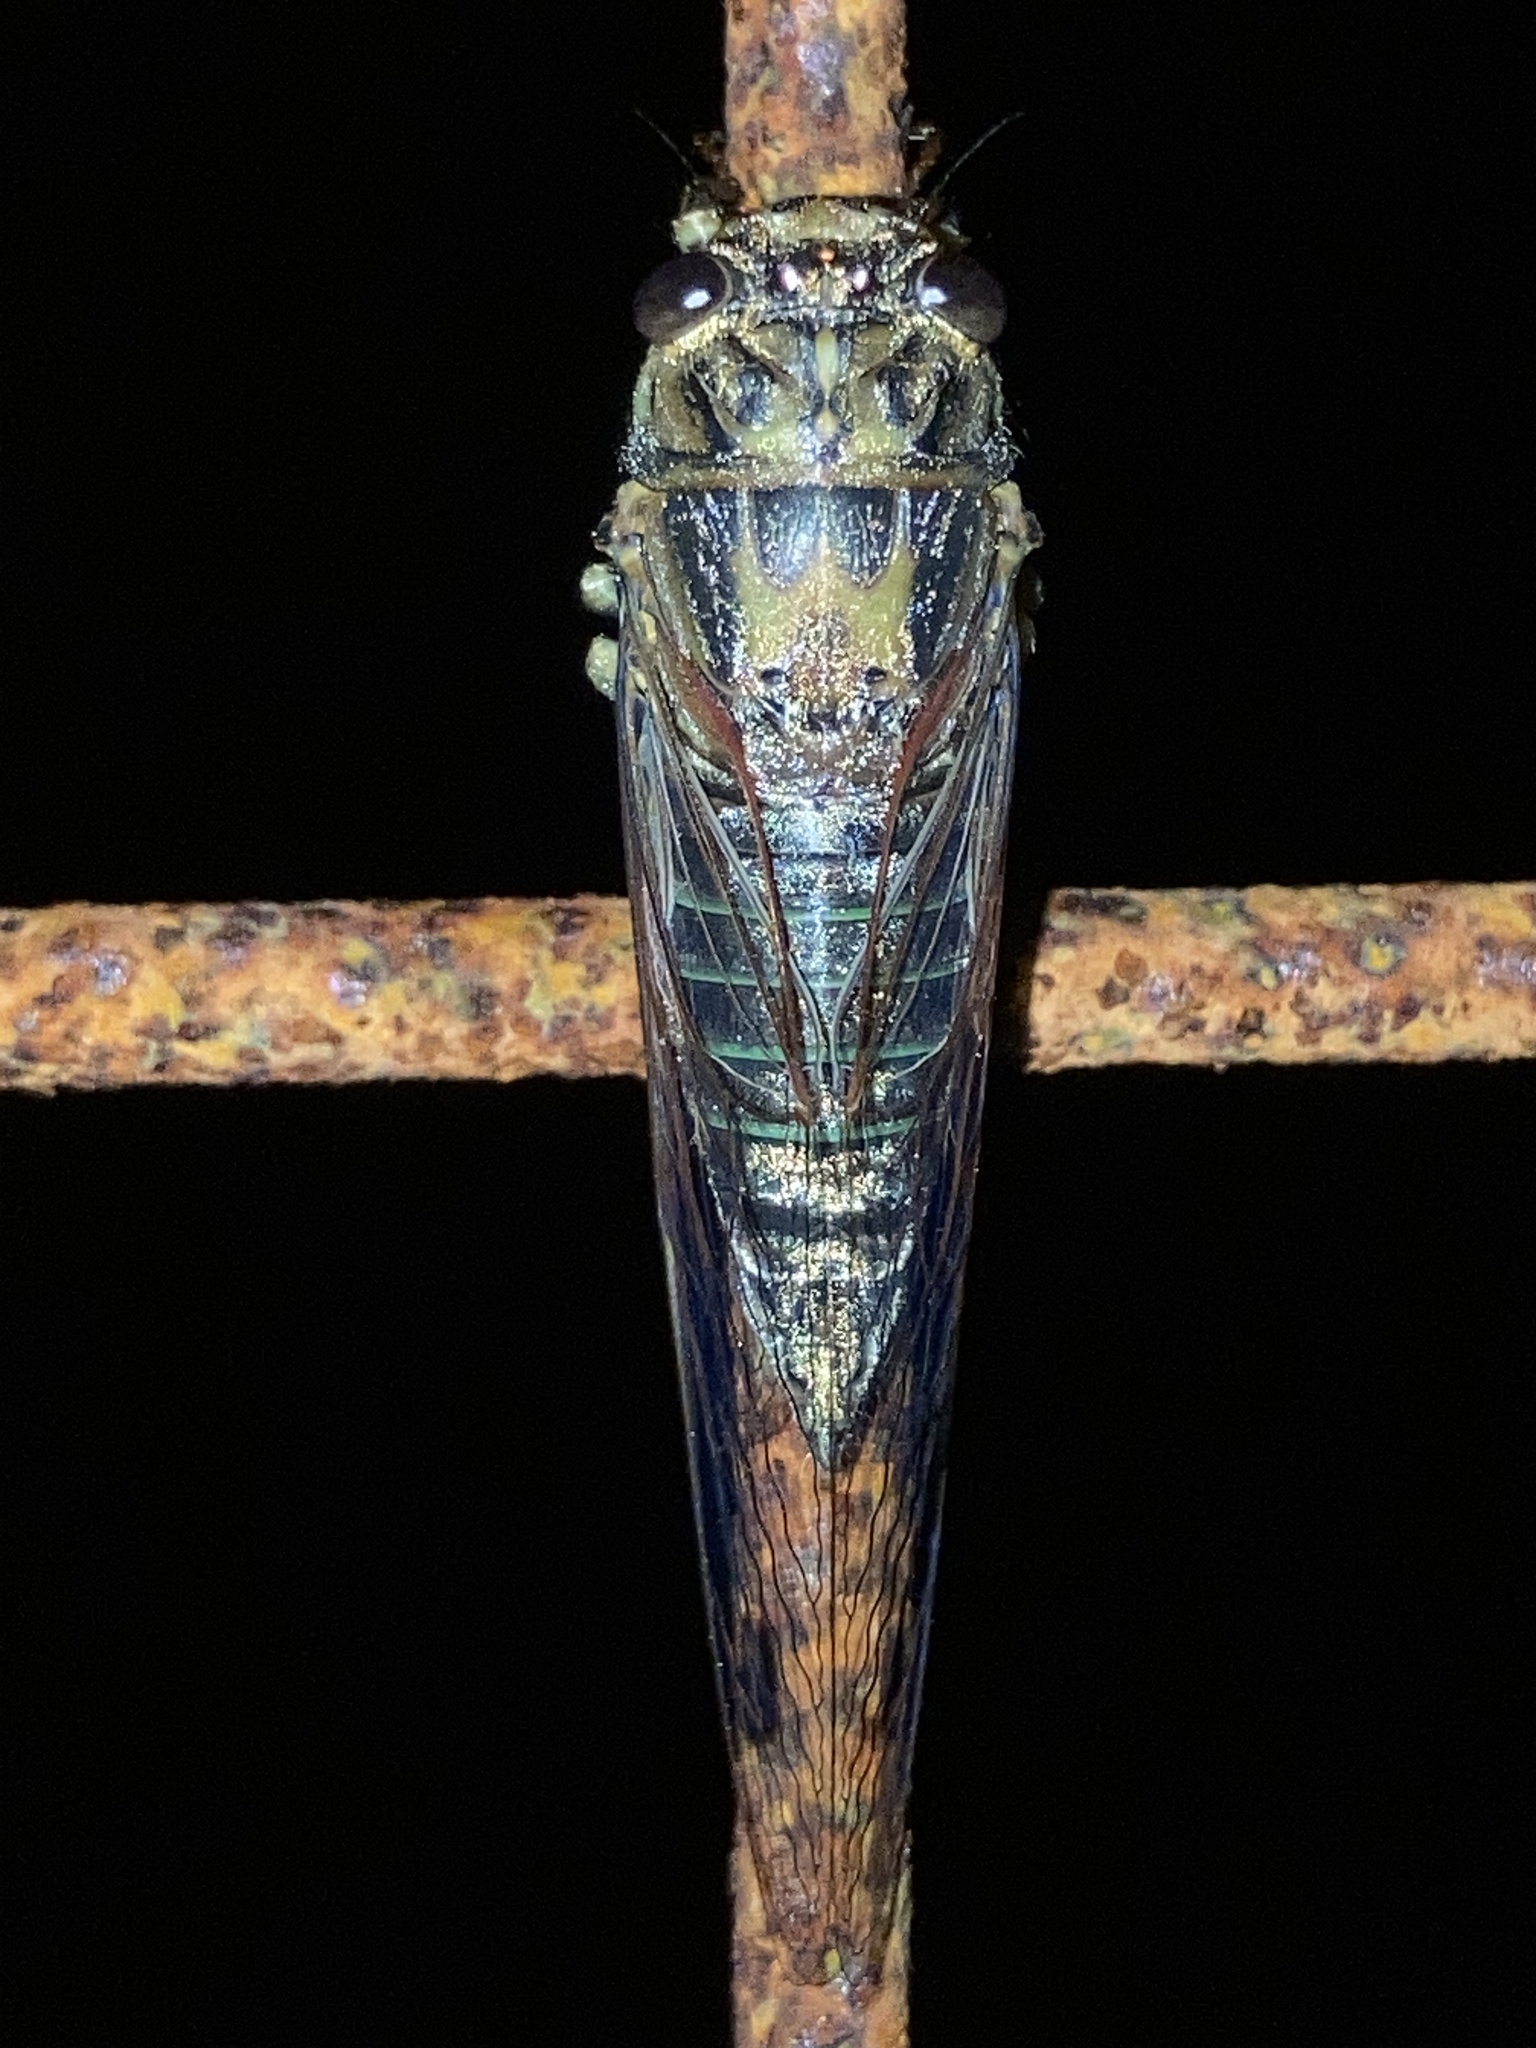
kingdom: Animalia
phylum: Arthropoda
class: Insecta
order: Hemiptera
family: Cicadidae
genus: Galanga
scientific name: Galanga labeculata
